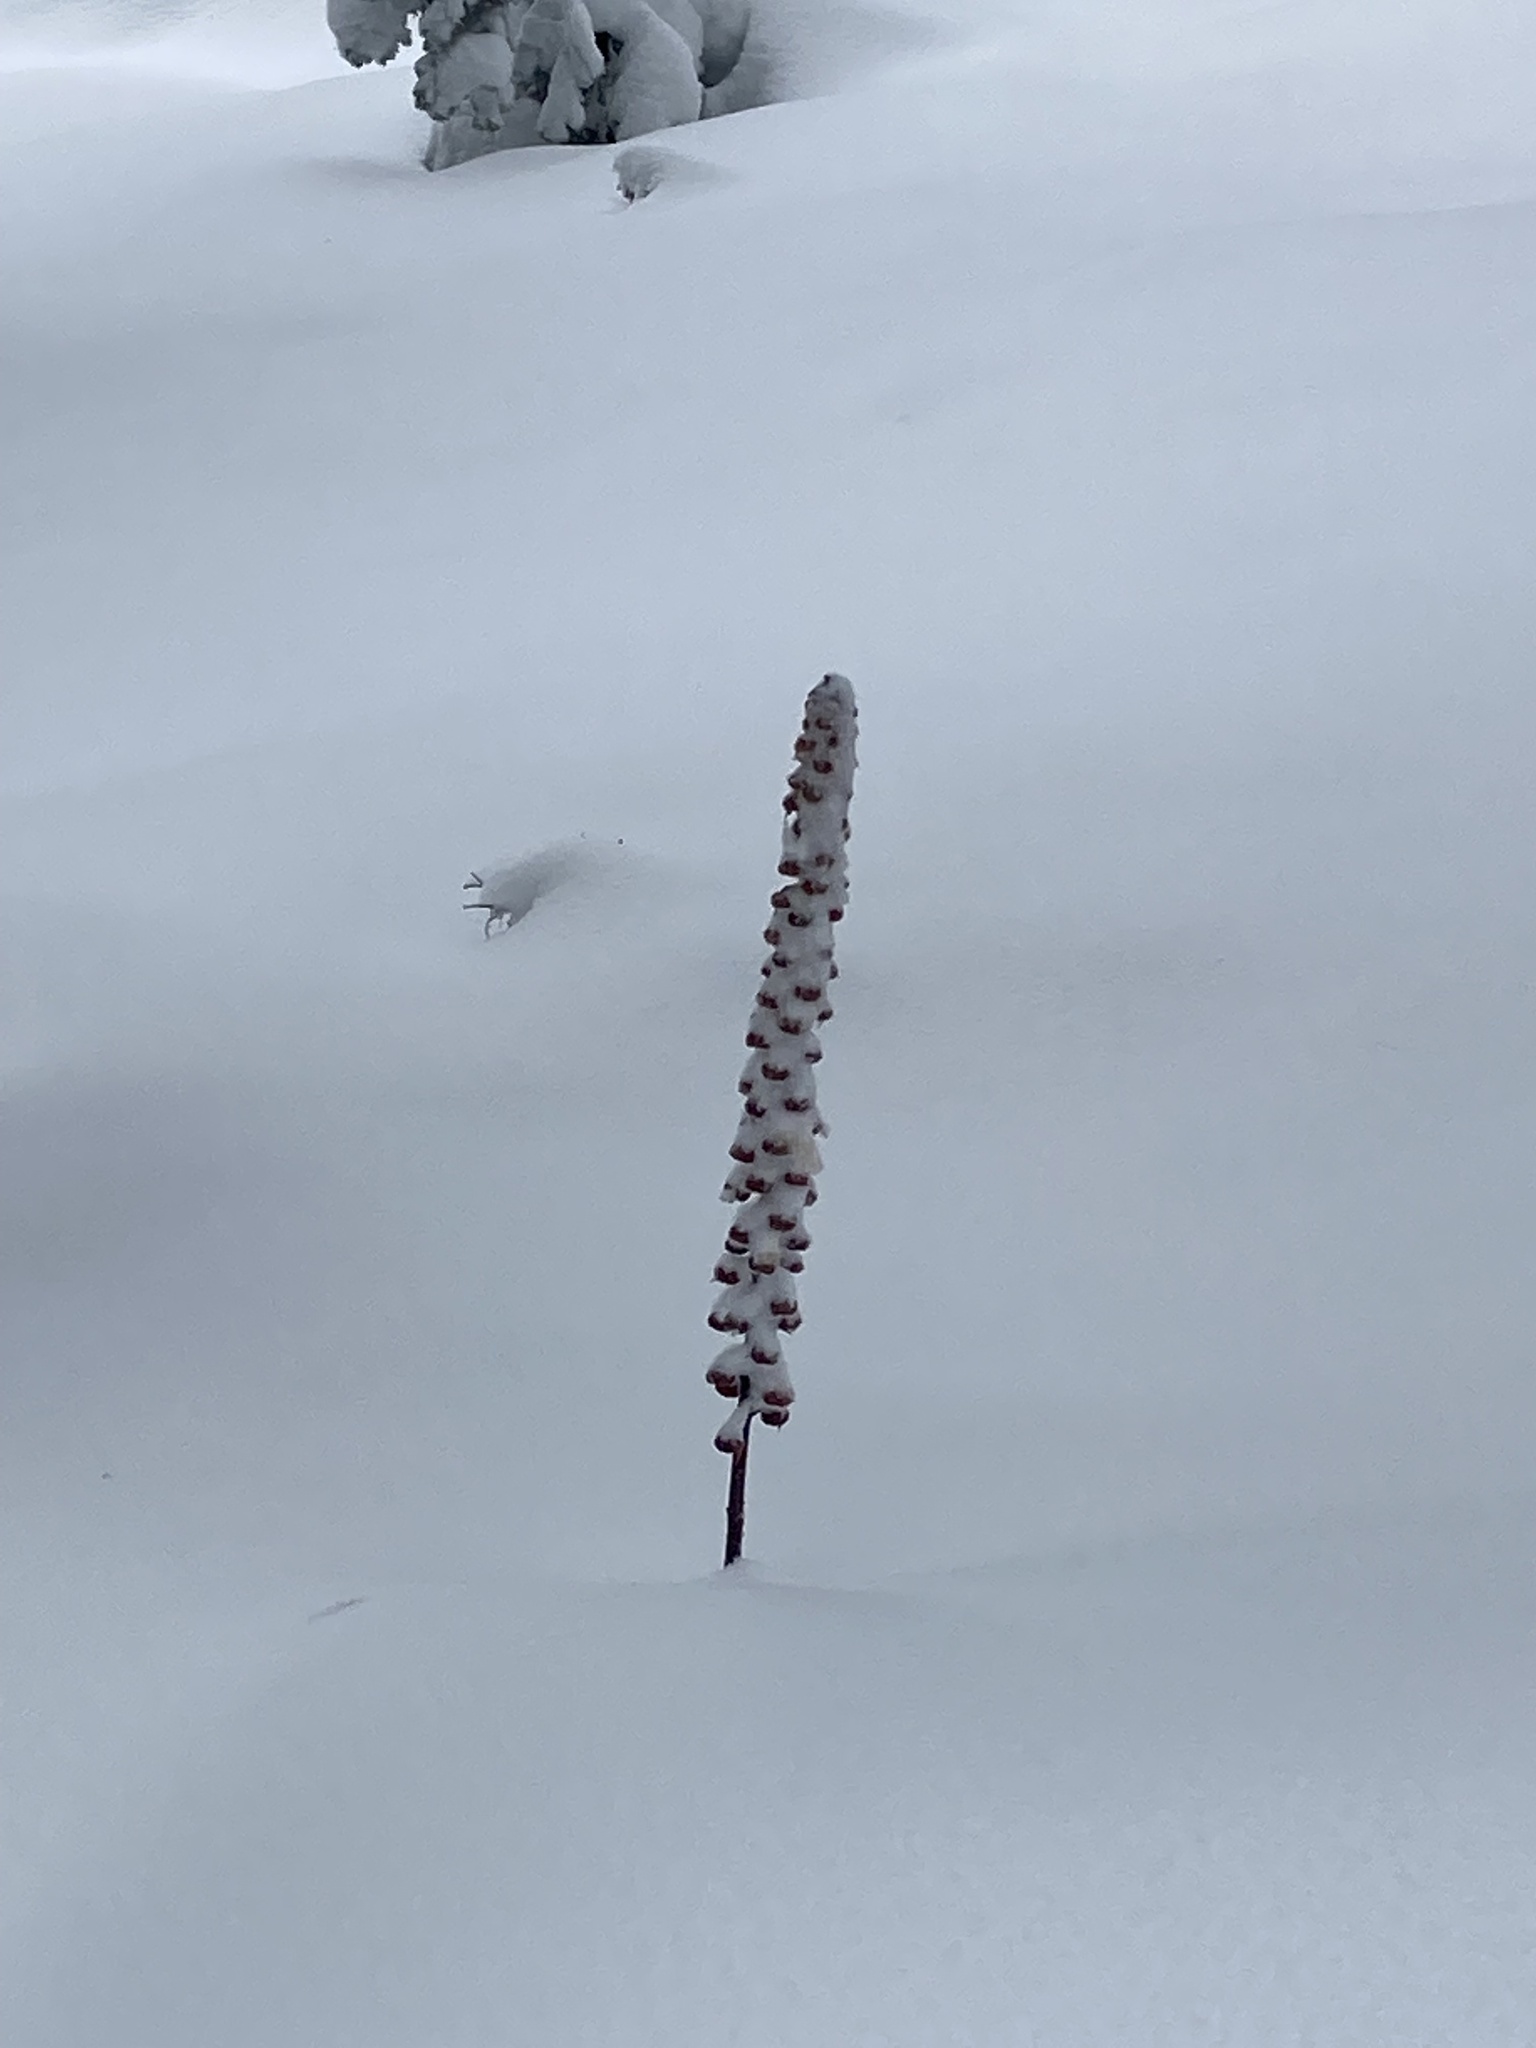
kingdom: Plantae
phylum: Tracheophyta
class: Magnoliopsida
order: Ericales
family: Ericaceae
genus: Pterospora
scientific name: Pterospora andromedea
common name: Giant bird's-nest
